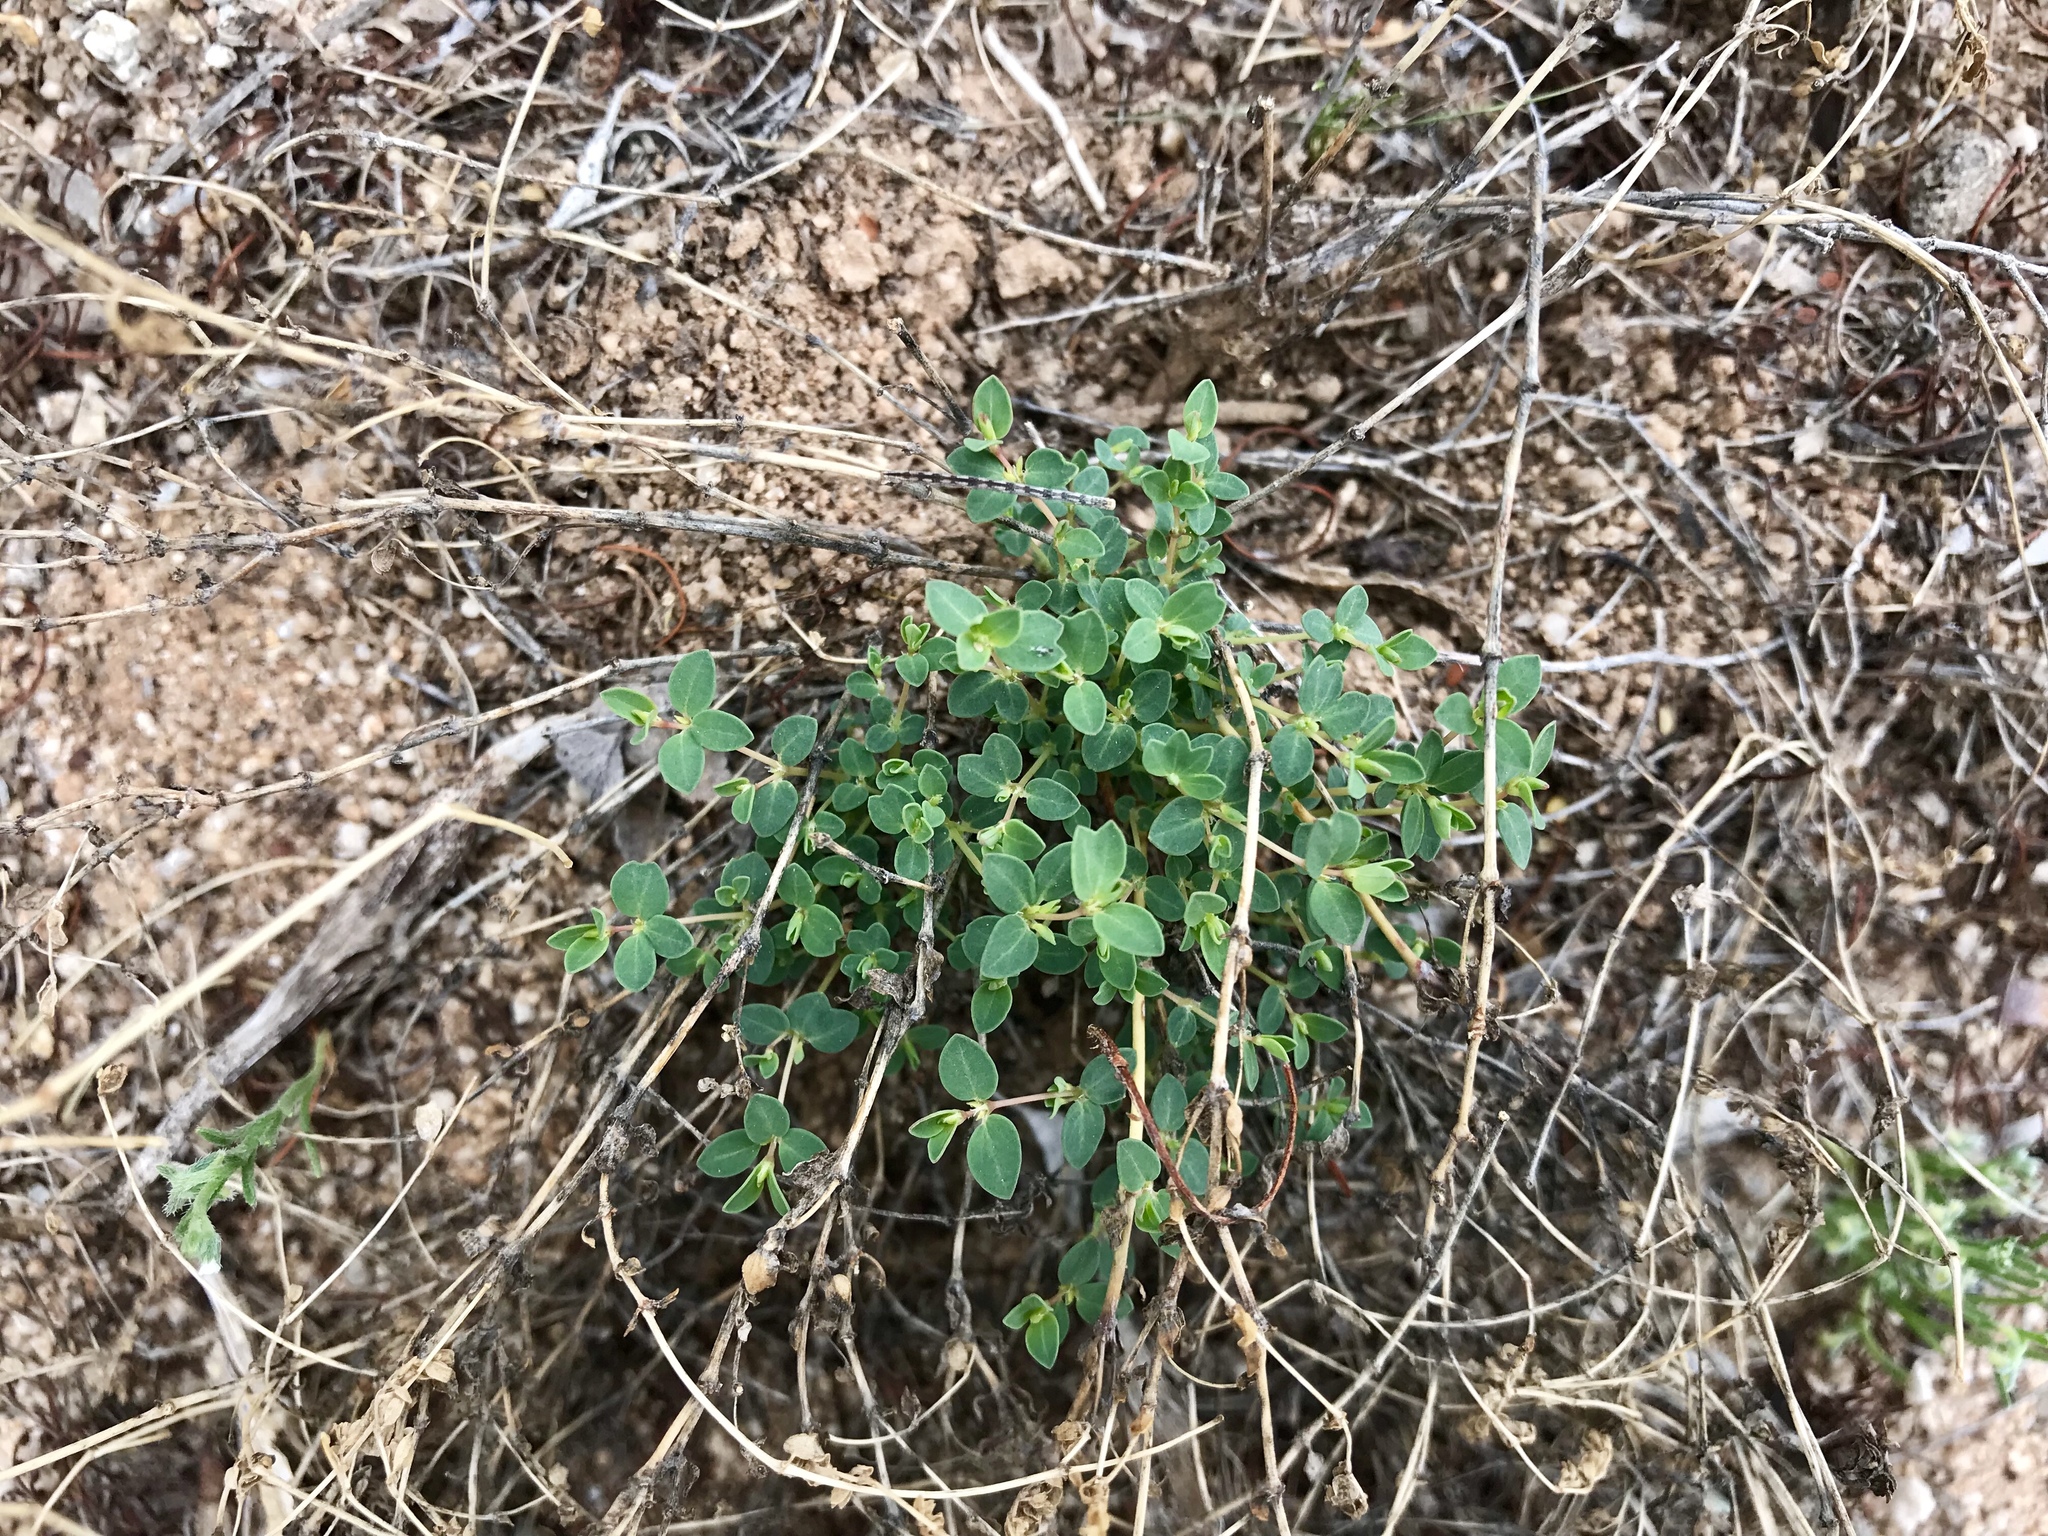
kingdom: Plantae
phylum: Tracheophyta
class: Magnoliopsida
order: Malpighiales
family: Euphorbiaceae
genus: Euphorbia
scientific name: Euphorbia polycarpa
